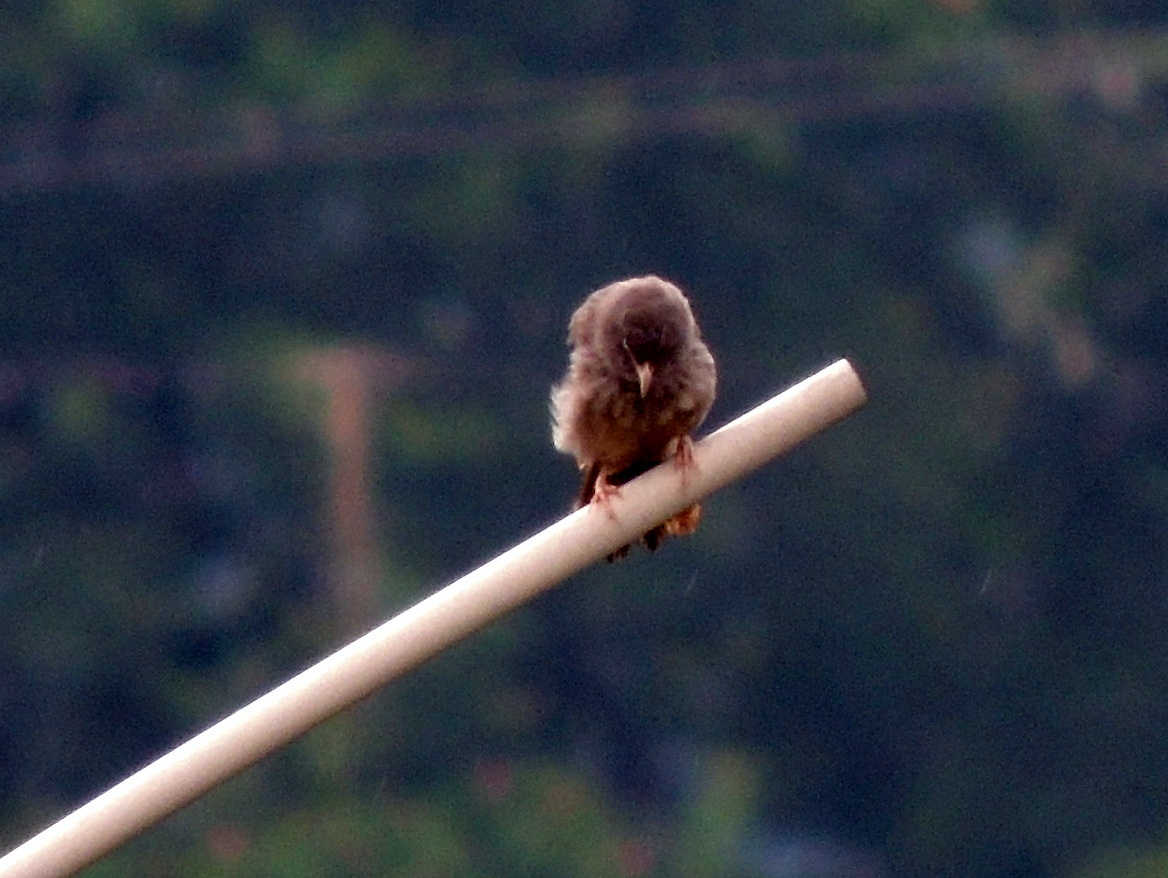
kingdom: Animalia
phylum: Chordata
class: Aves
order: Passeriformes
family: Leiothrichidae
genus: Turdoides
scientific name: Turdoides striata
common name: Jungle babbler
